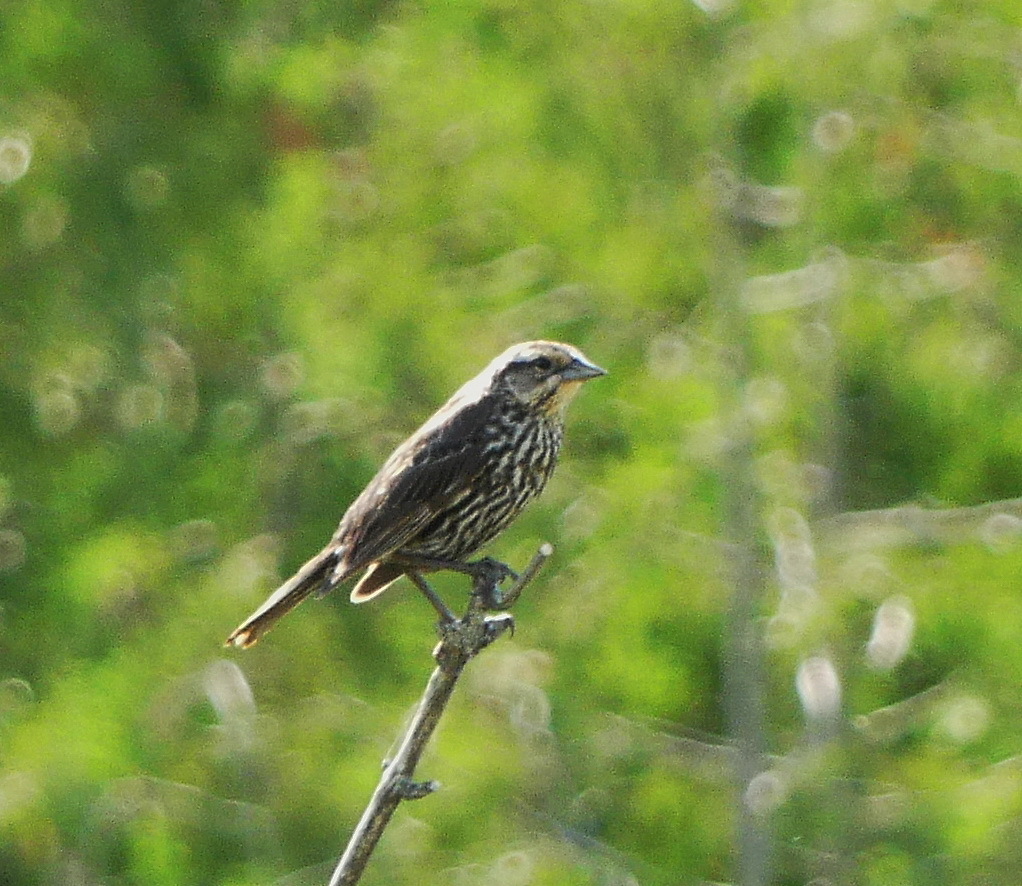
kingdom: Animalia
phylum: Chordata
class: Aves
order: Passeriformes
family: Icteridae
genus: Agelaius
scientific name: Agelaius phoeniceus
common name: Red-winged blackbird
